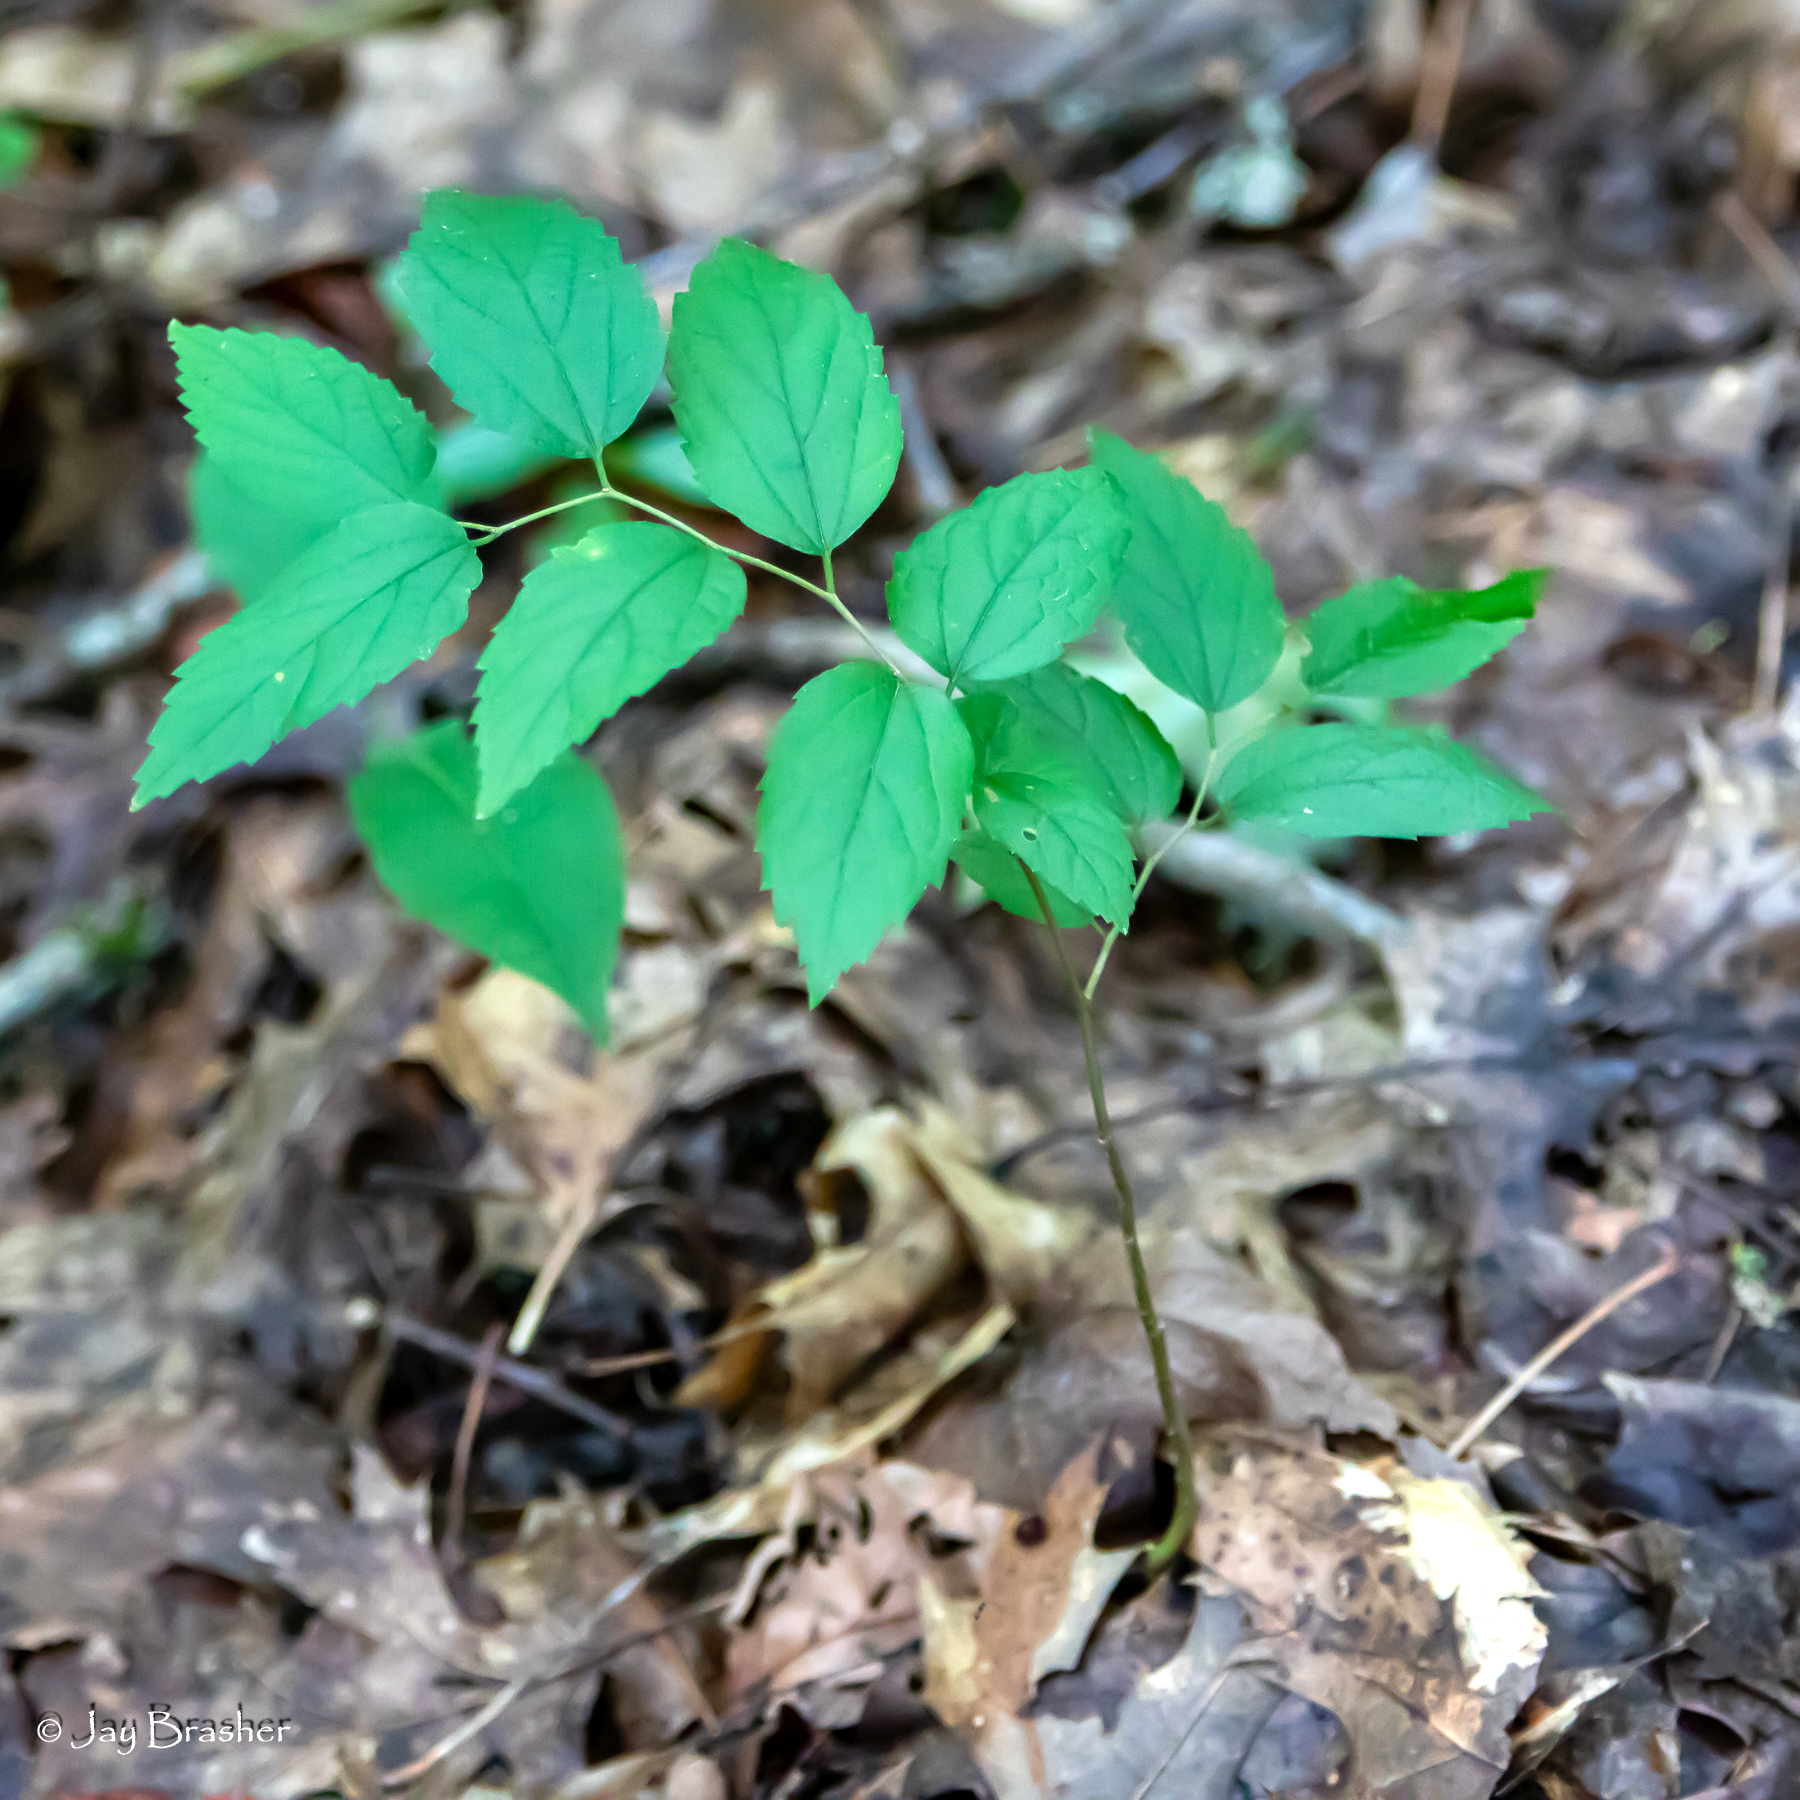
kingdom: Plantae
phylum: Tracheophyta
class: Magnoliopsida
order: Rosales
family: Cannabaceae
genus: Celtis
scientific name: Celtis occidentalis
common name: Common hackberry
